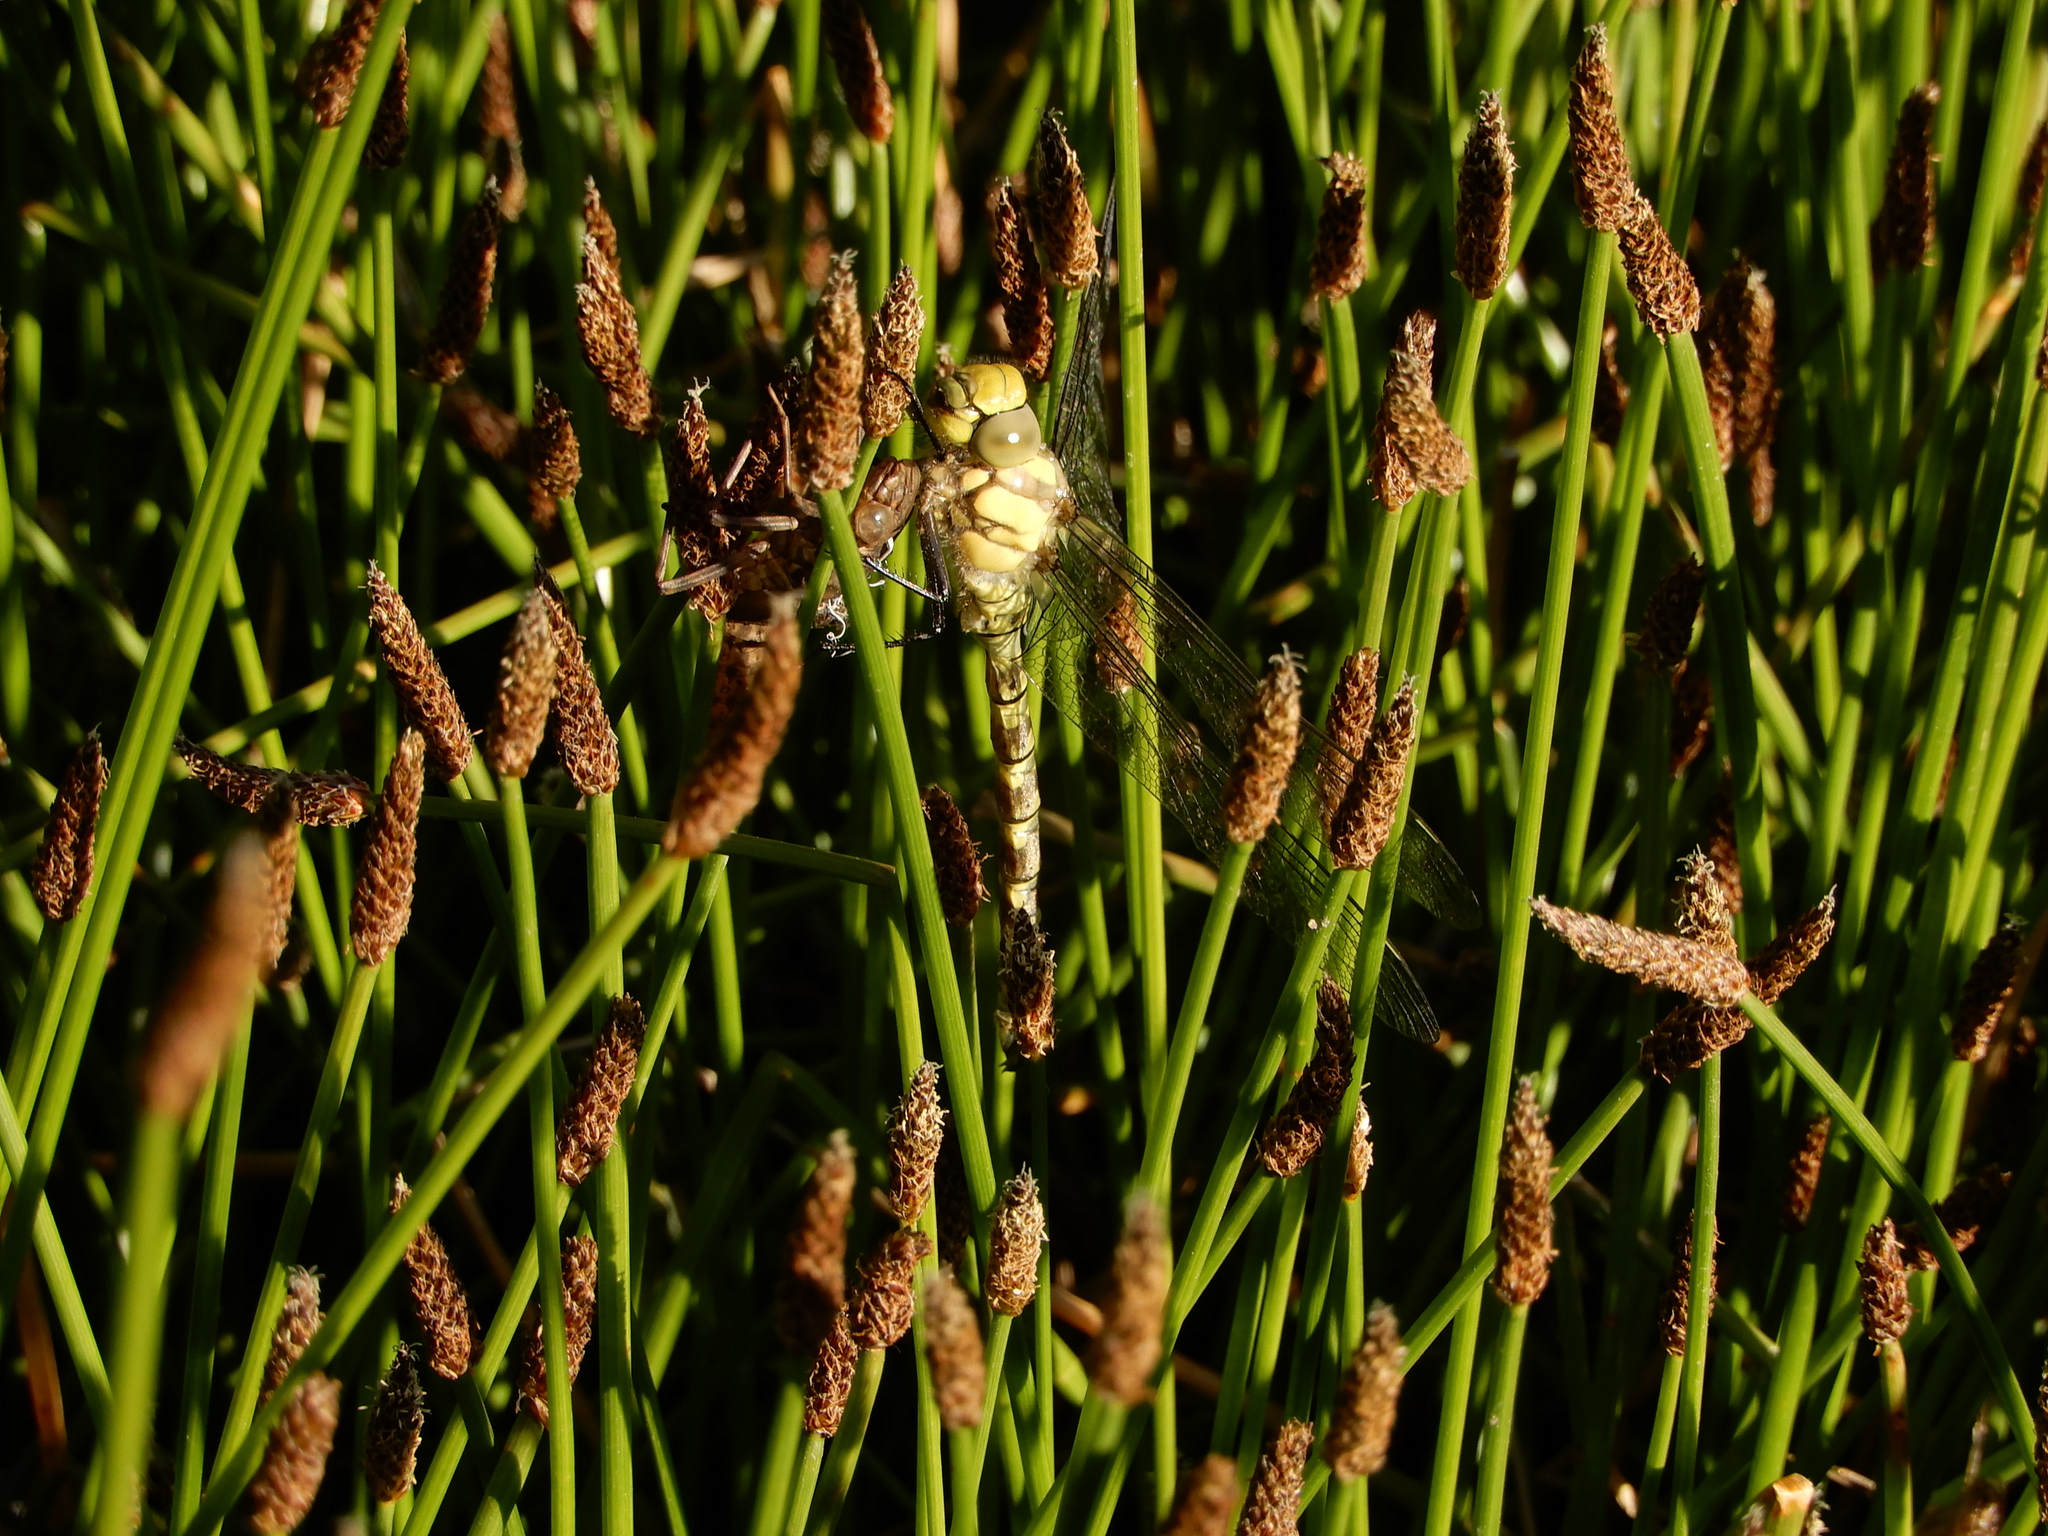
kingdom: Animalia
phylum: Arthropoda
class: Insecta
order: Odonata
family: Aeshnidae
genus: Aeshna
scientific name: Aeshna cyanea
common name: Southern hawker
